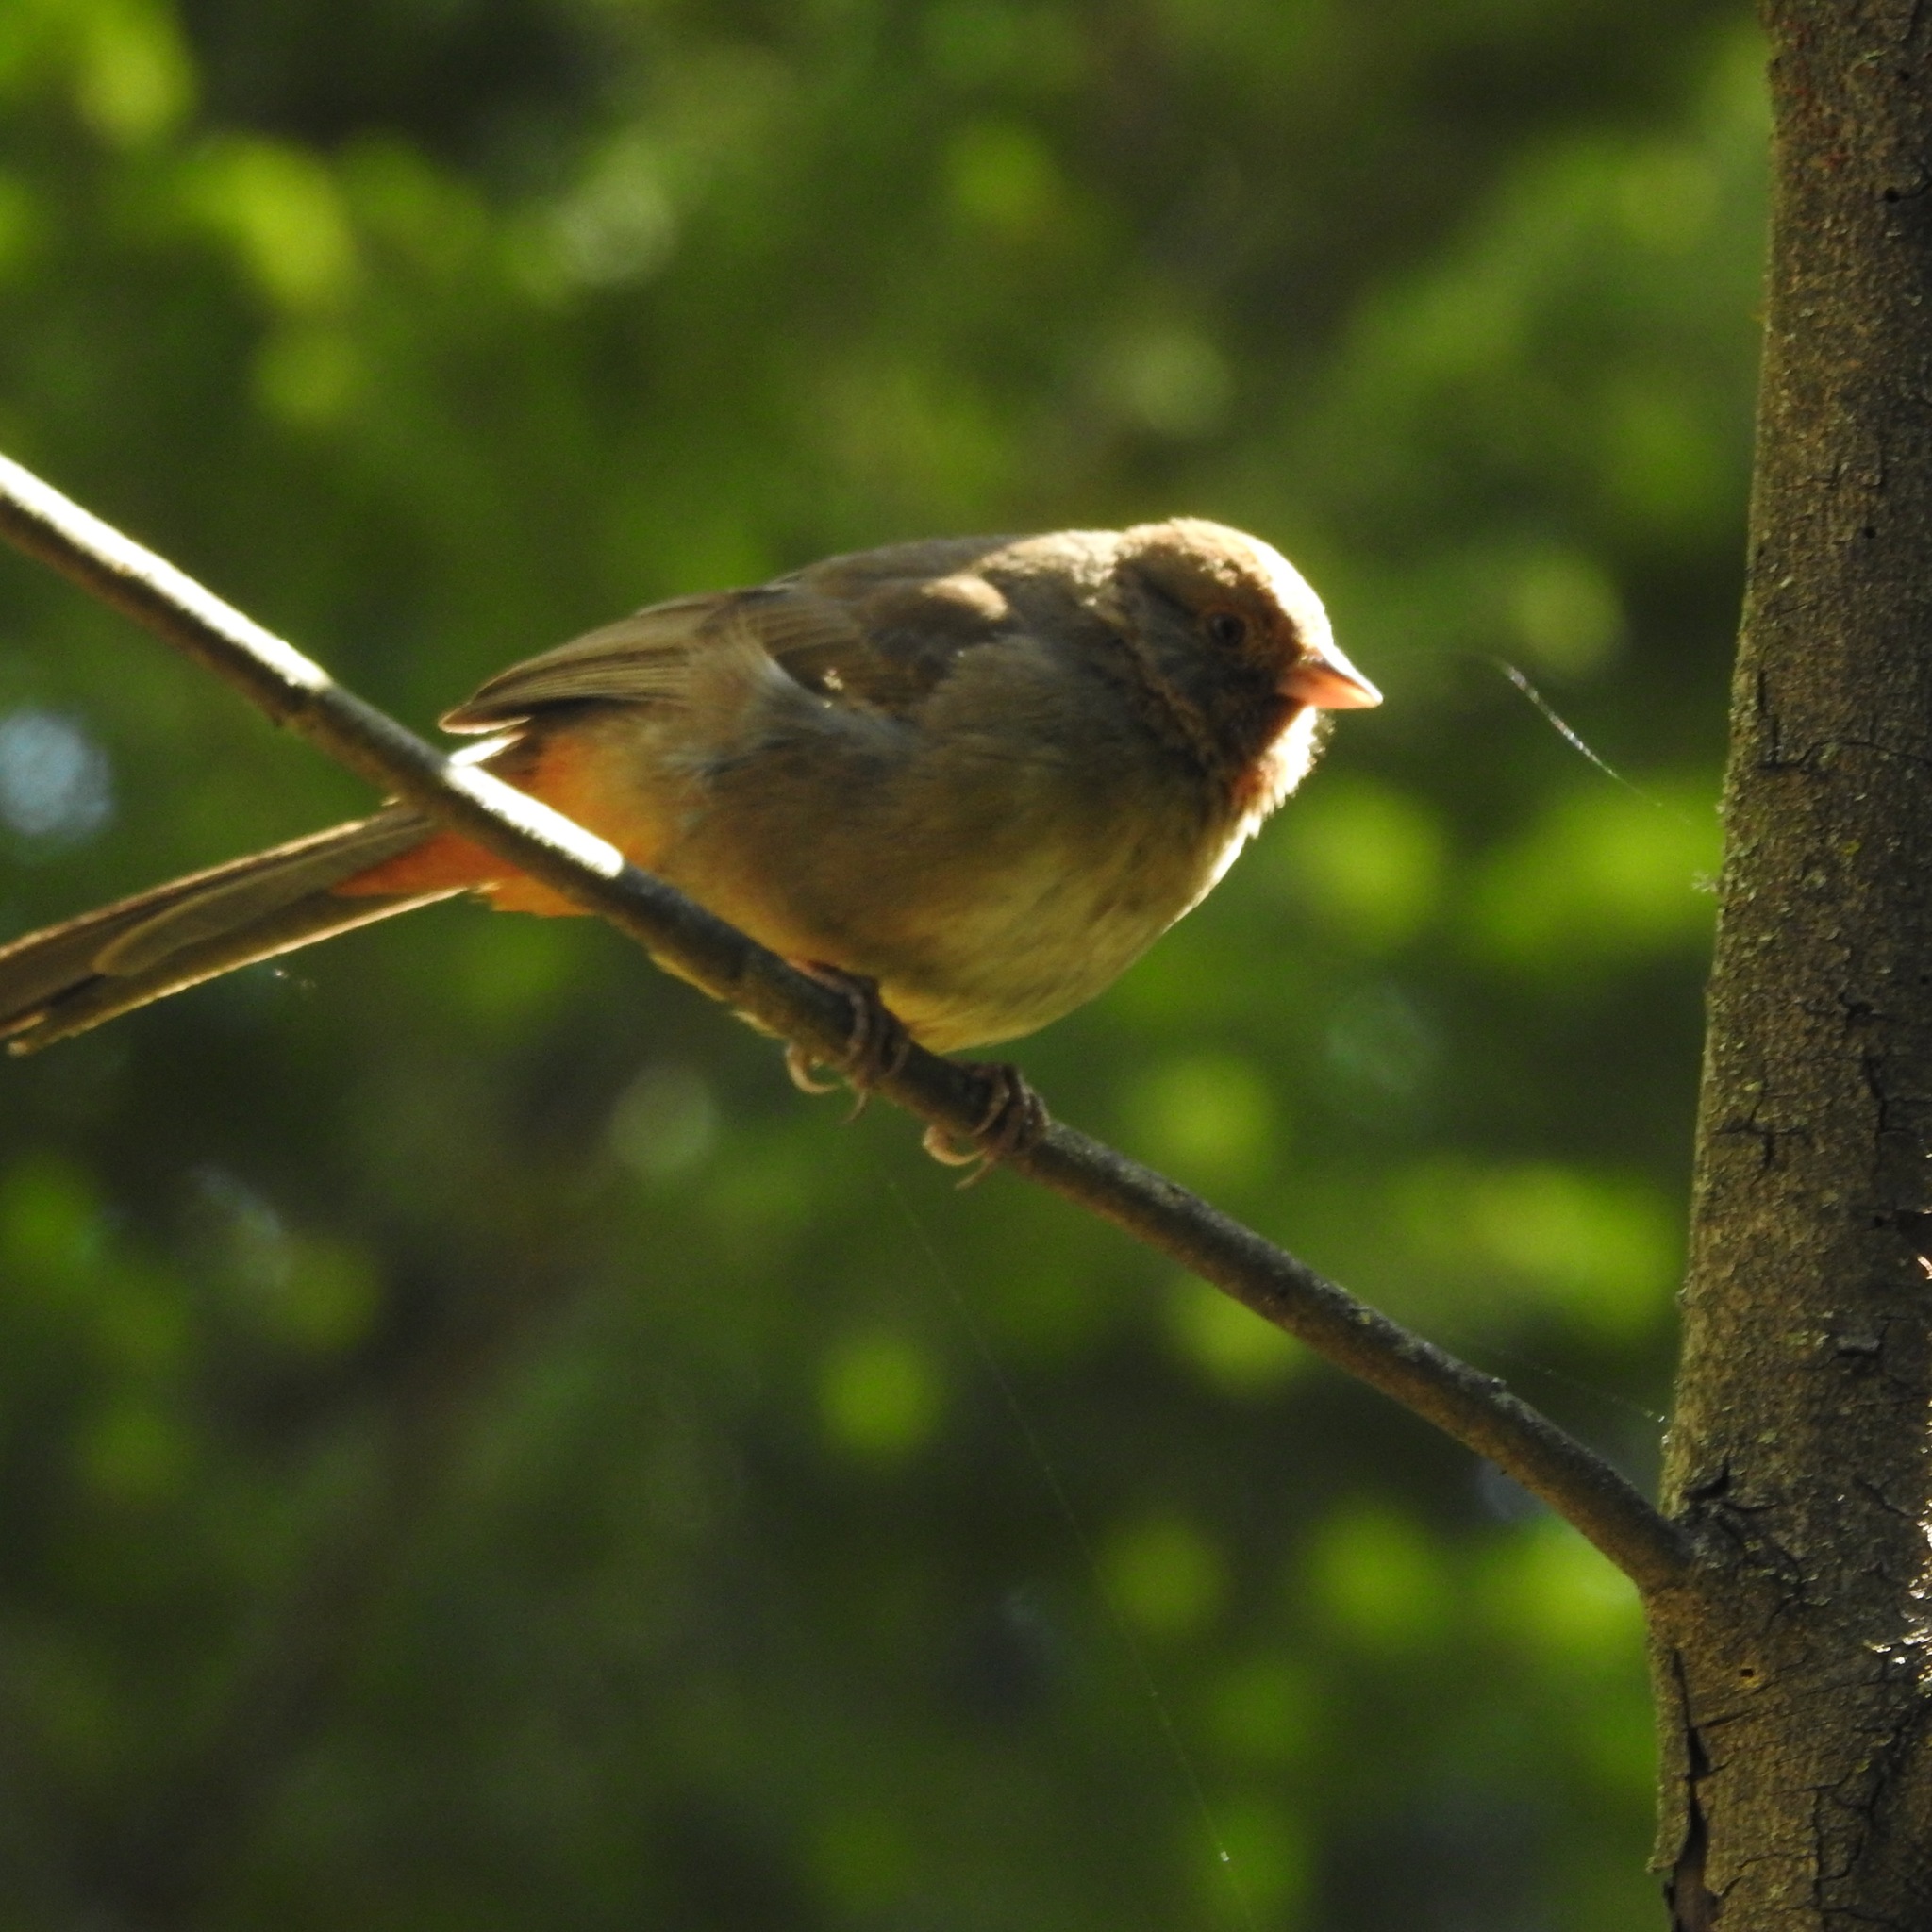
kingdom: Animalia
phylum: Chordata
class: Aves
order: Passeriformes
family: Passerellidae
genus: Melozone
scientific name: Melozone crissalis
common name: California towhee
